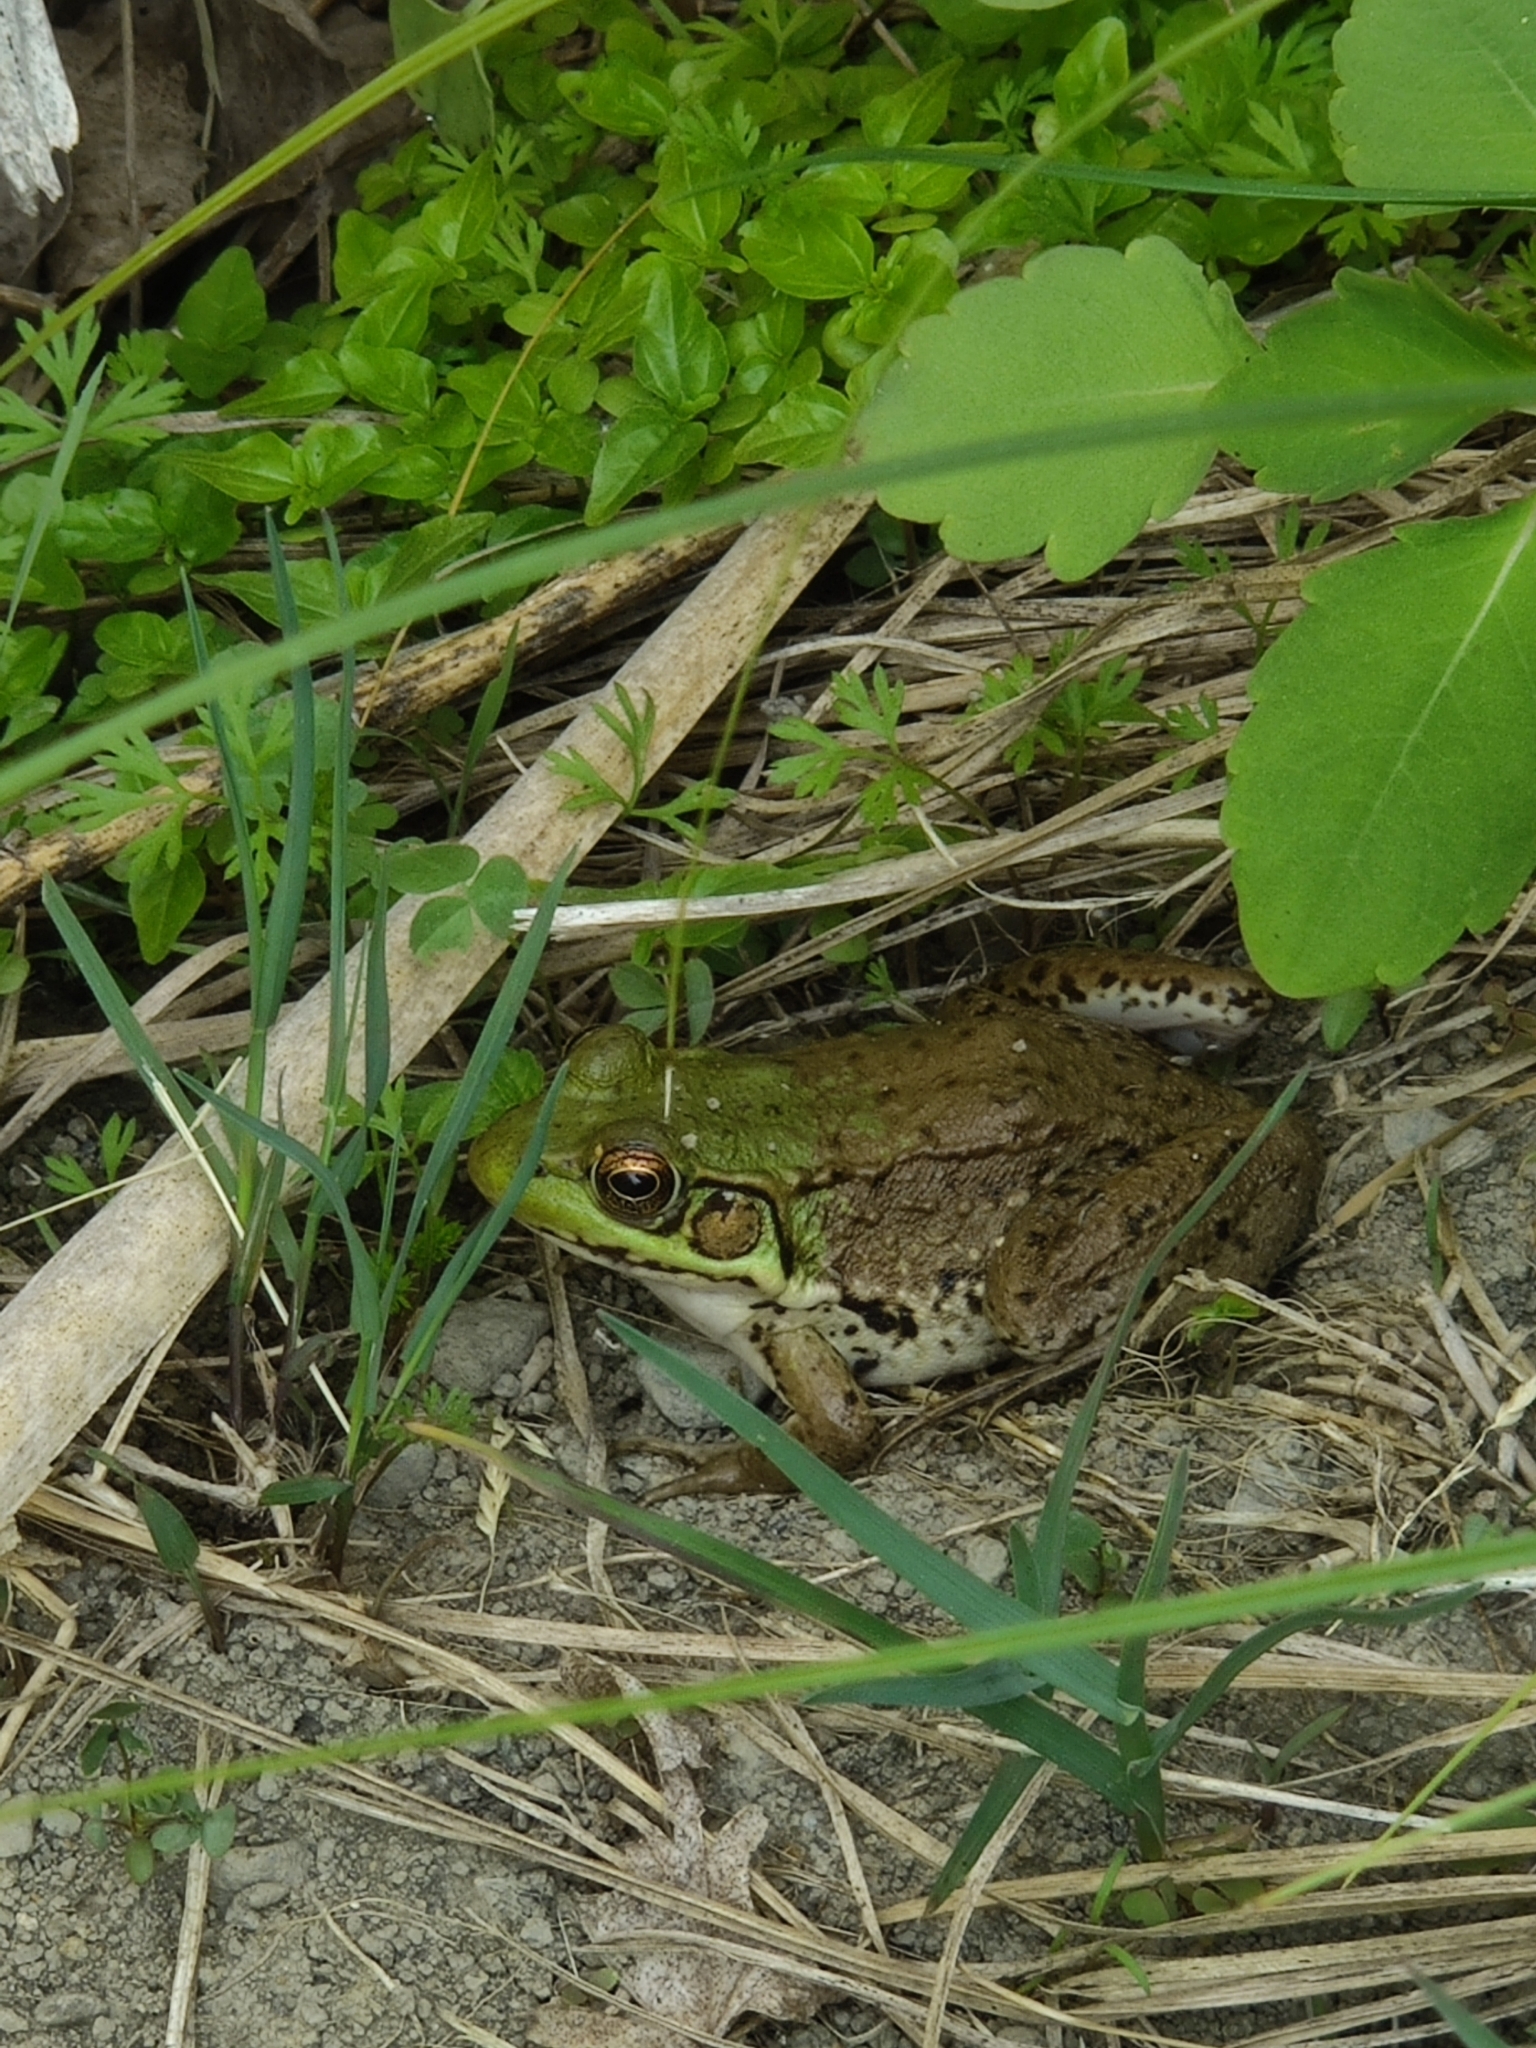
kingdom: Animalia
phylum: Chordata
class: Amphibia
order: Anura
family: Ranidae
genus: Lithobates
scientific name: Lithobates clamitans
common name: Green frog
